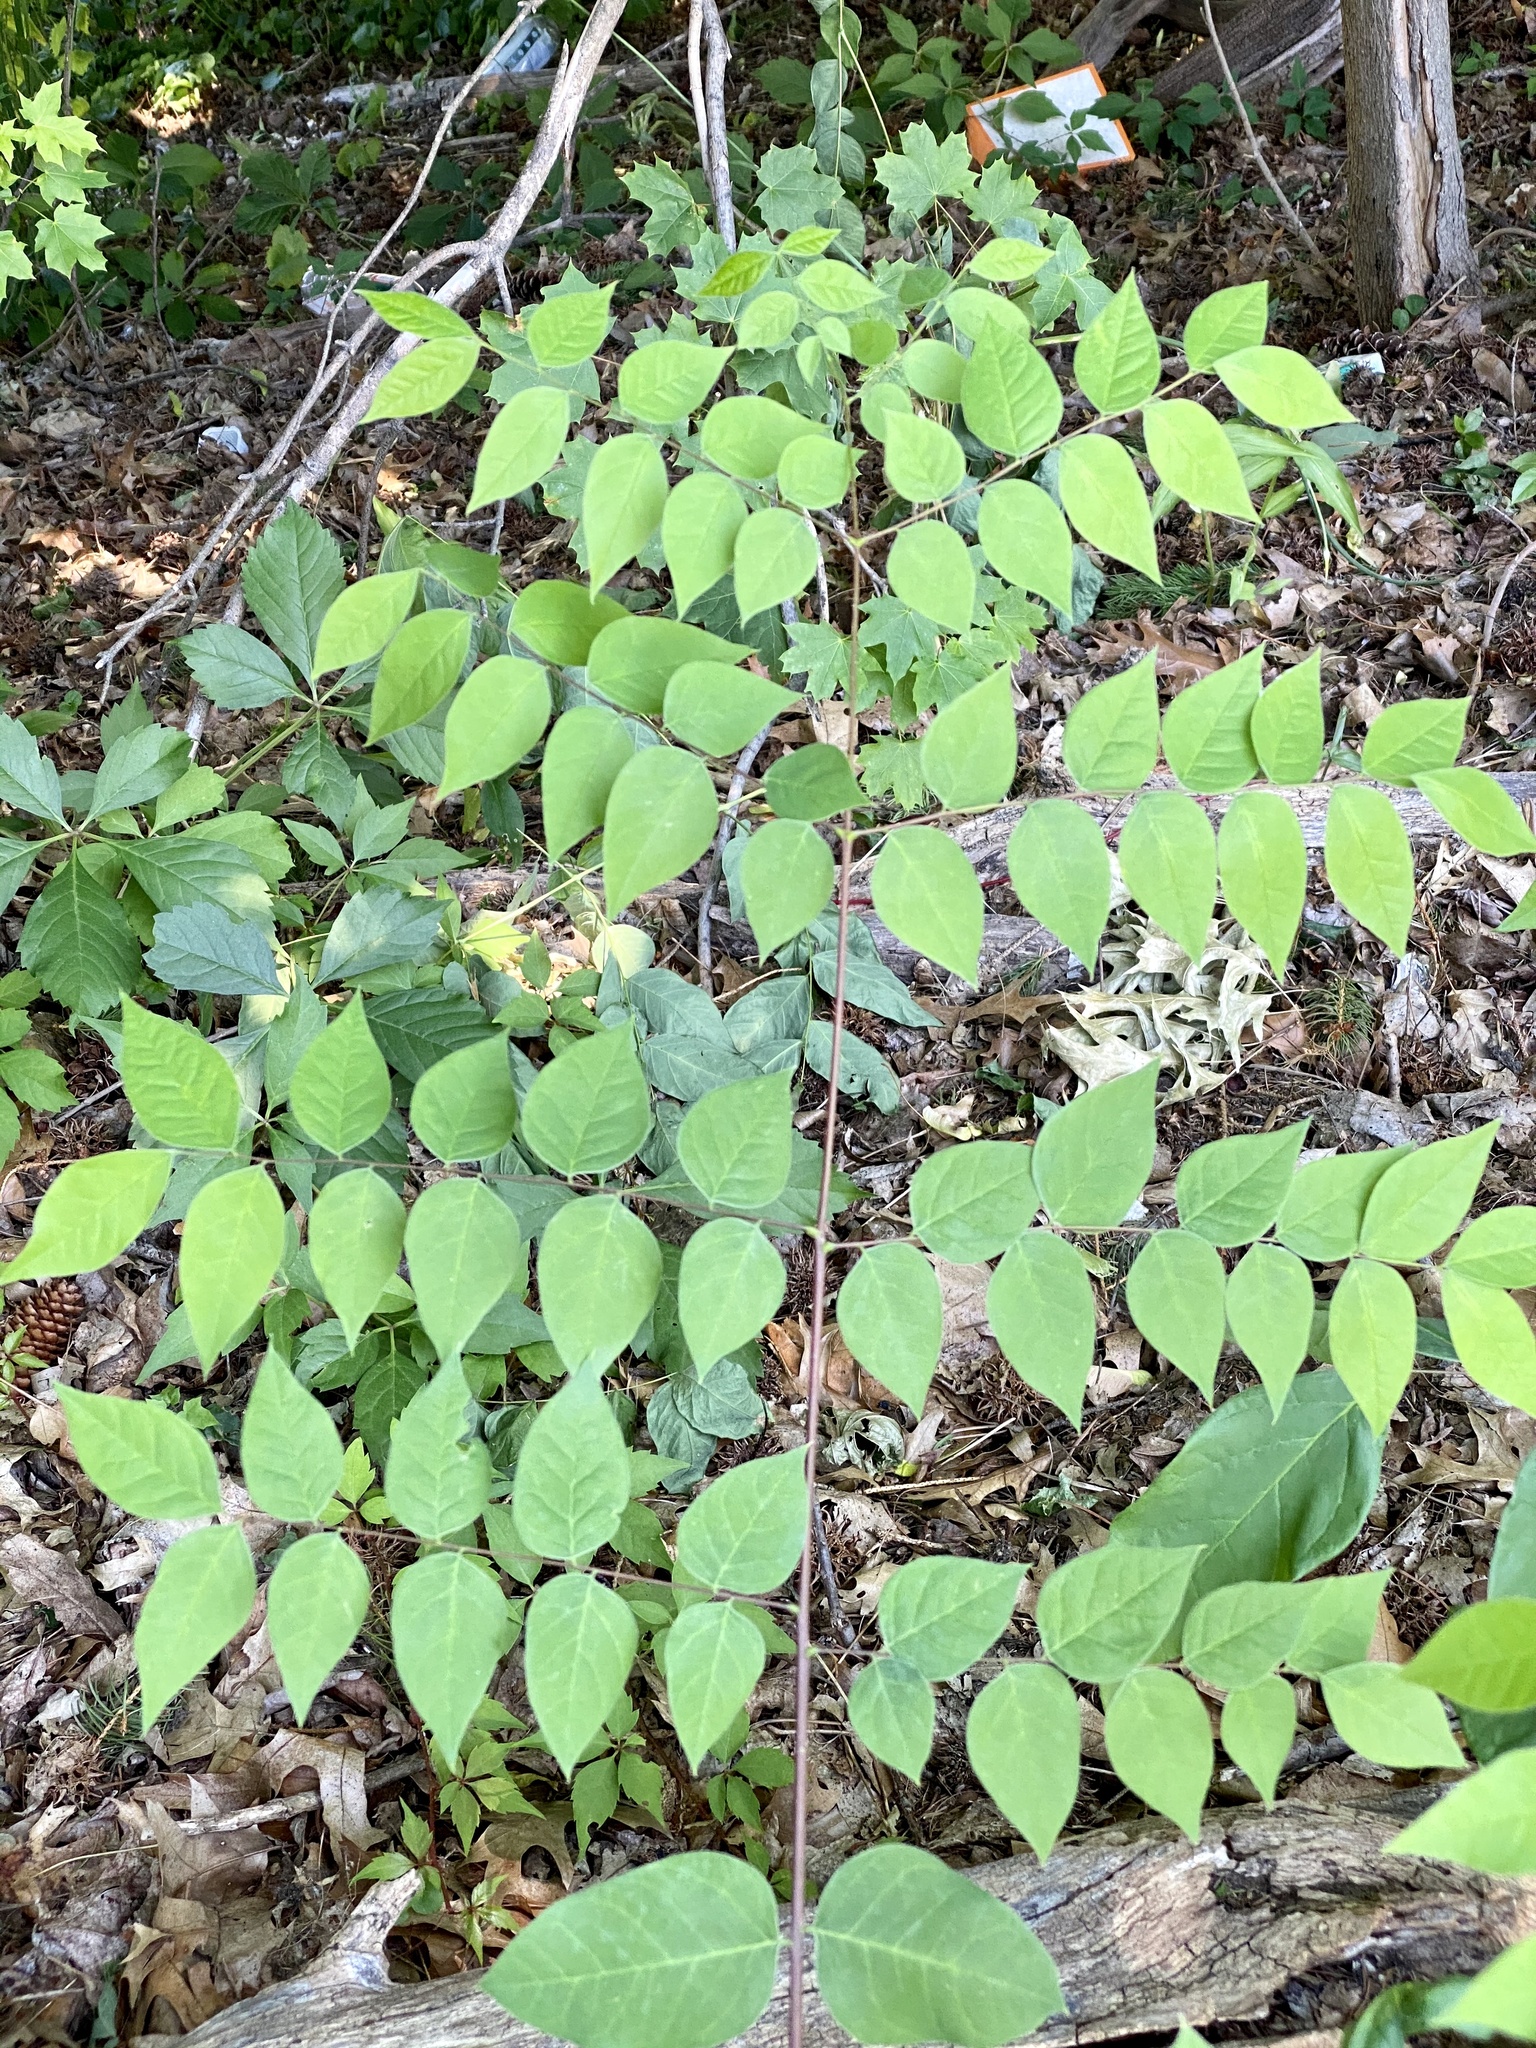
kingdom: Plantae
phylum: Tracheophyta
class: Magnoliopsida
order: Apiales
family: Araliaceae
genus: Aralia
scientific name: Aralia elata
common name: Japanese angelica-tree
